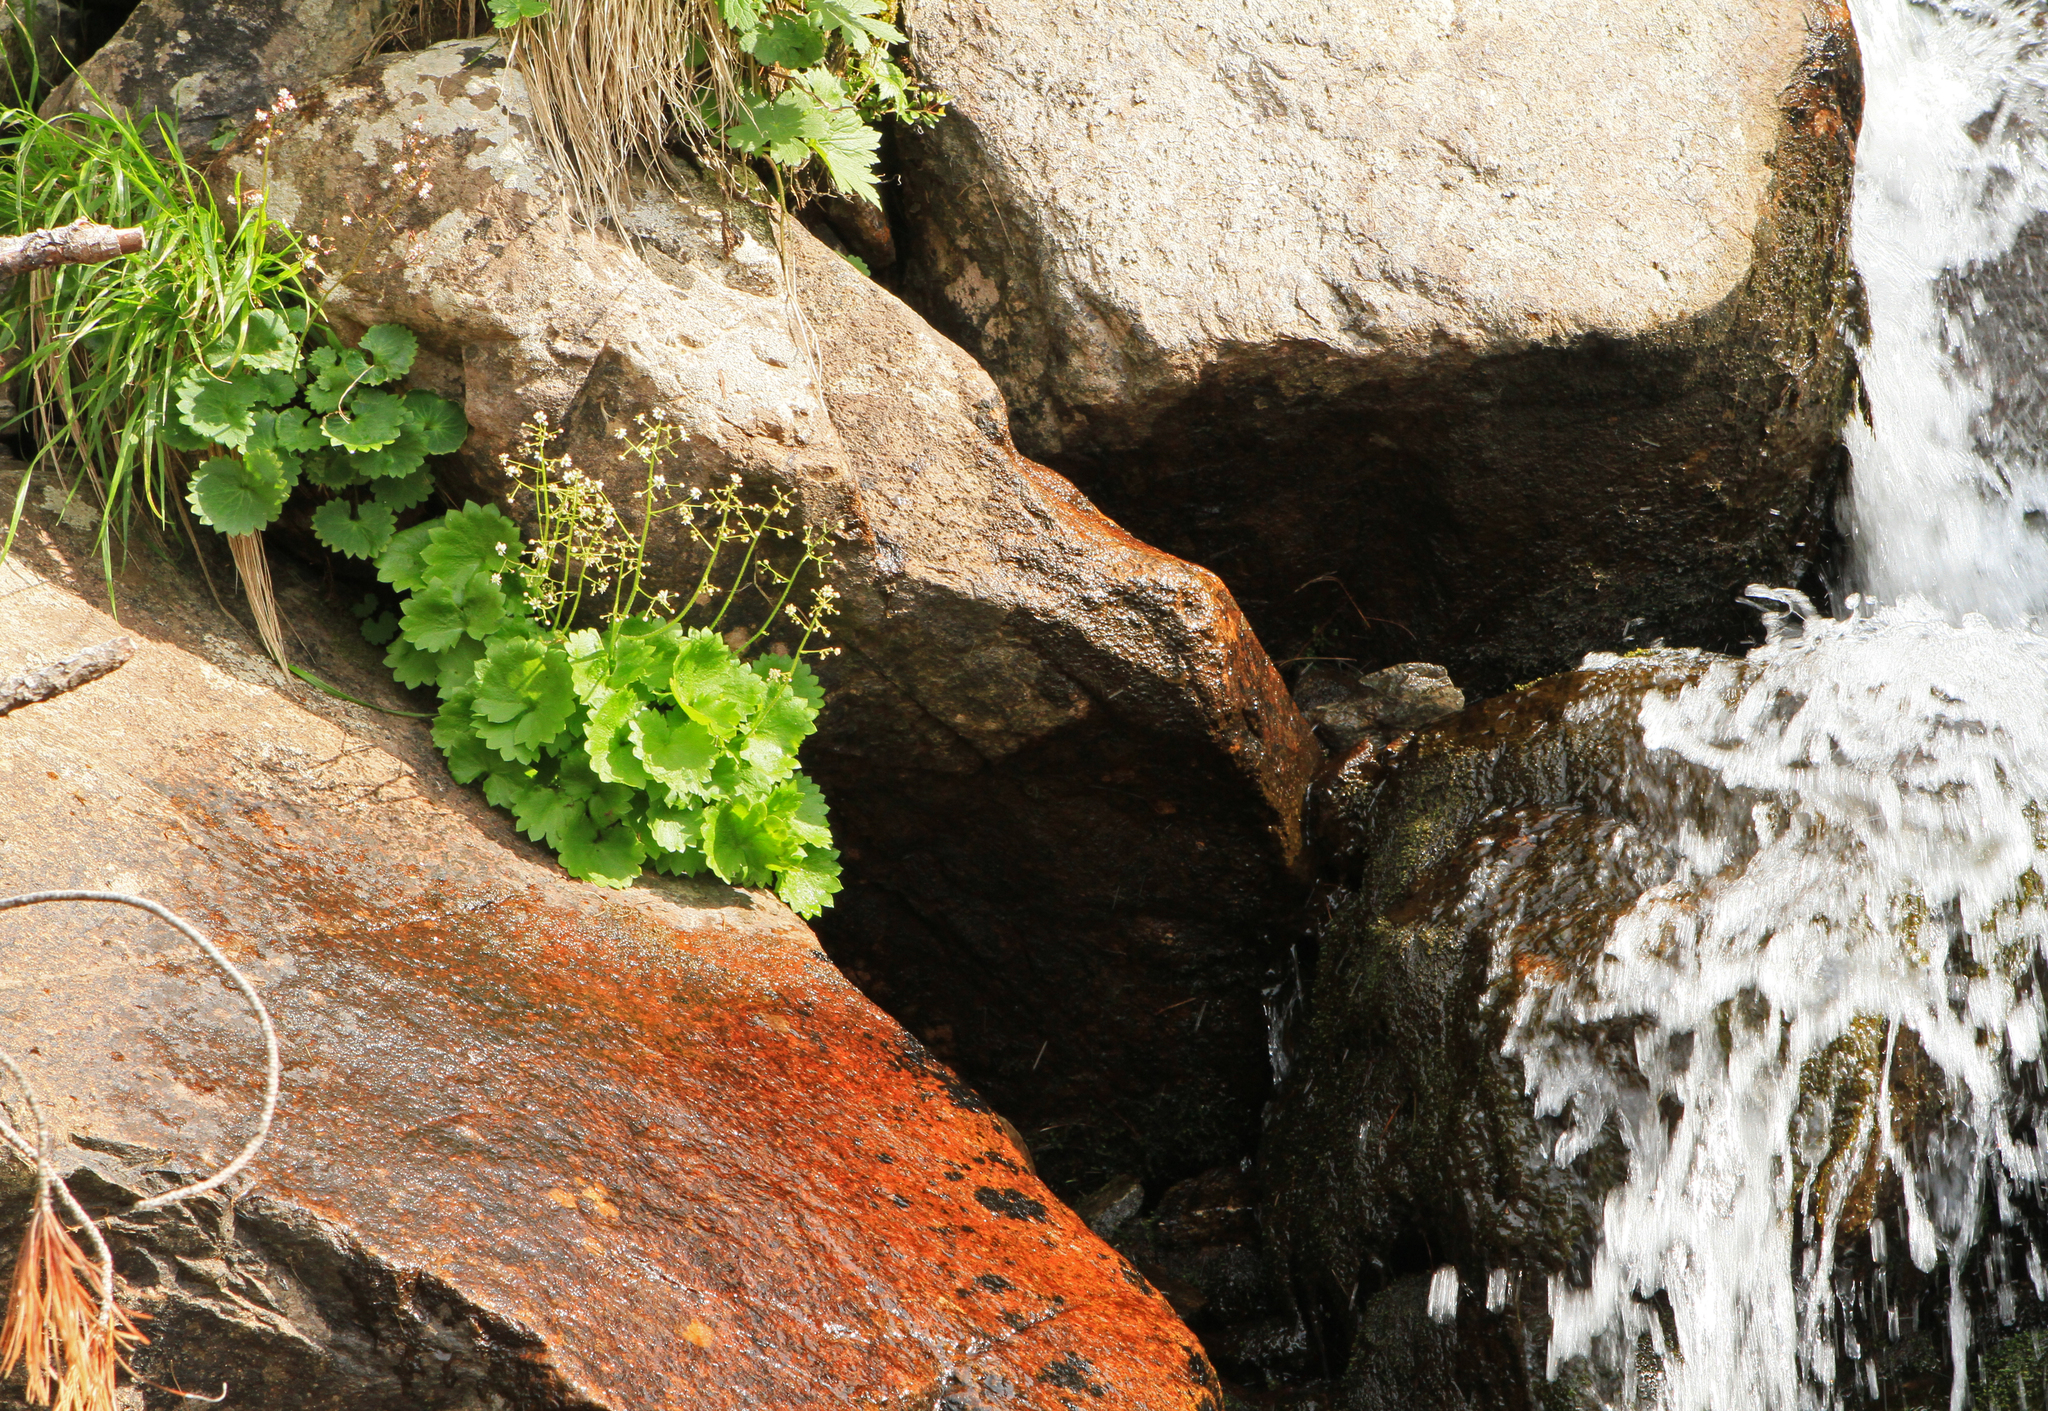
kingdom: Plantae
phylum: Tracheophyta
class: Magnoliopsida
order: Saxifragales
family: Saxifragaceae
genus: Micranthes
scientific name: Micranthes nelsoniana
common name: Nelson's saxifrage
